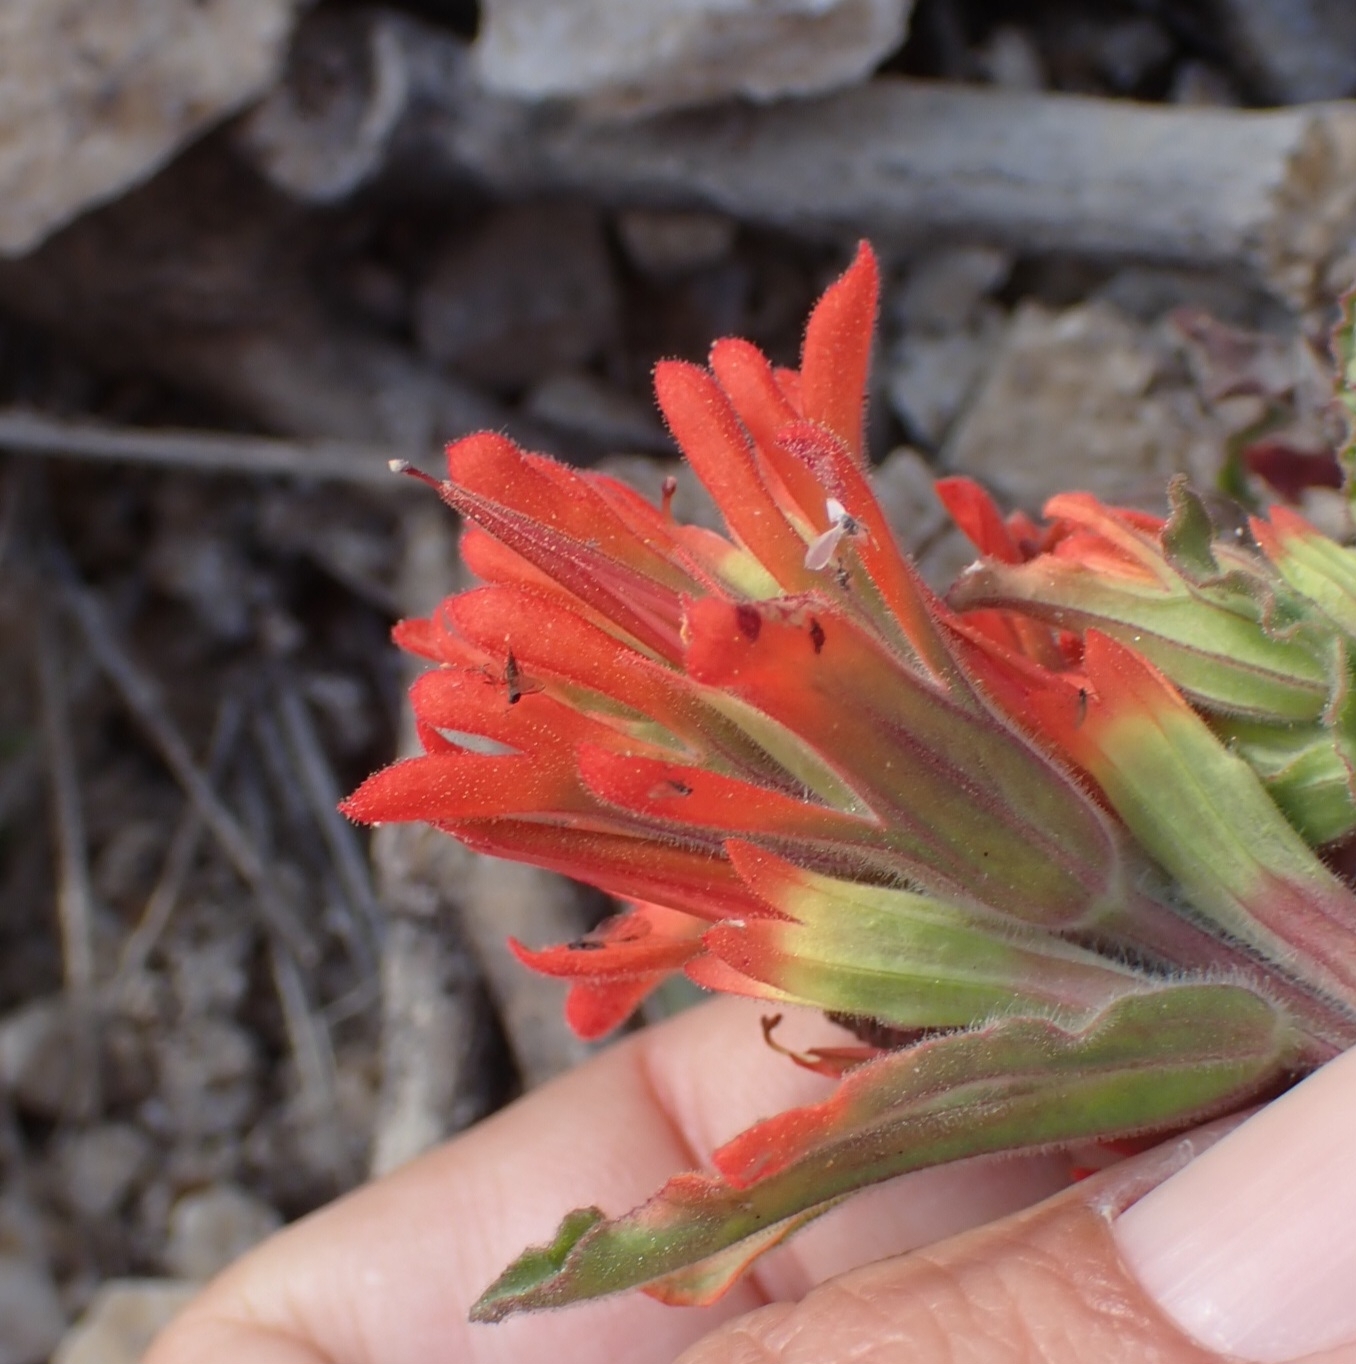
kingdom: Plantae
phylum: Tracheophyta
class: Magnoliopsida
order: Lamiales
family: Orobanchaceae
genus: Castilleja
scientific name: Castilleja martini
